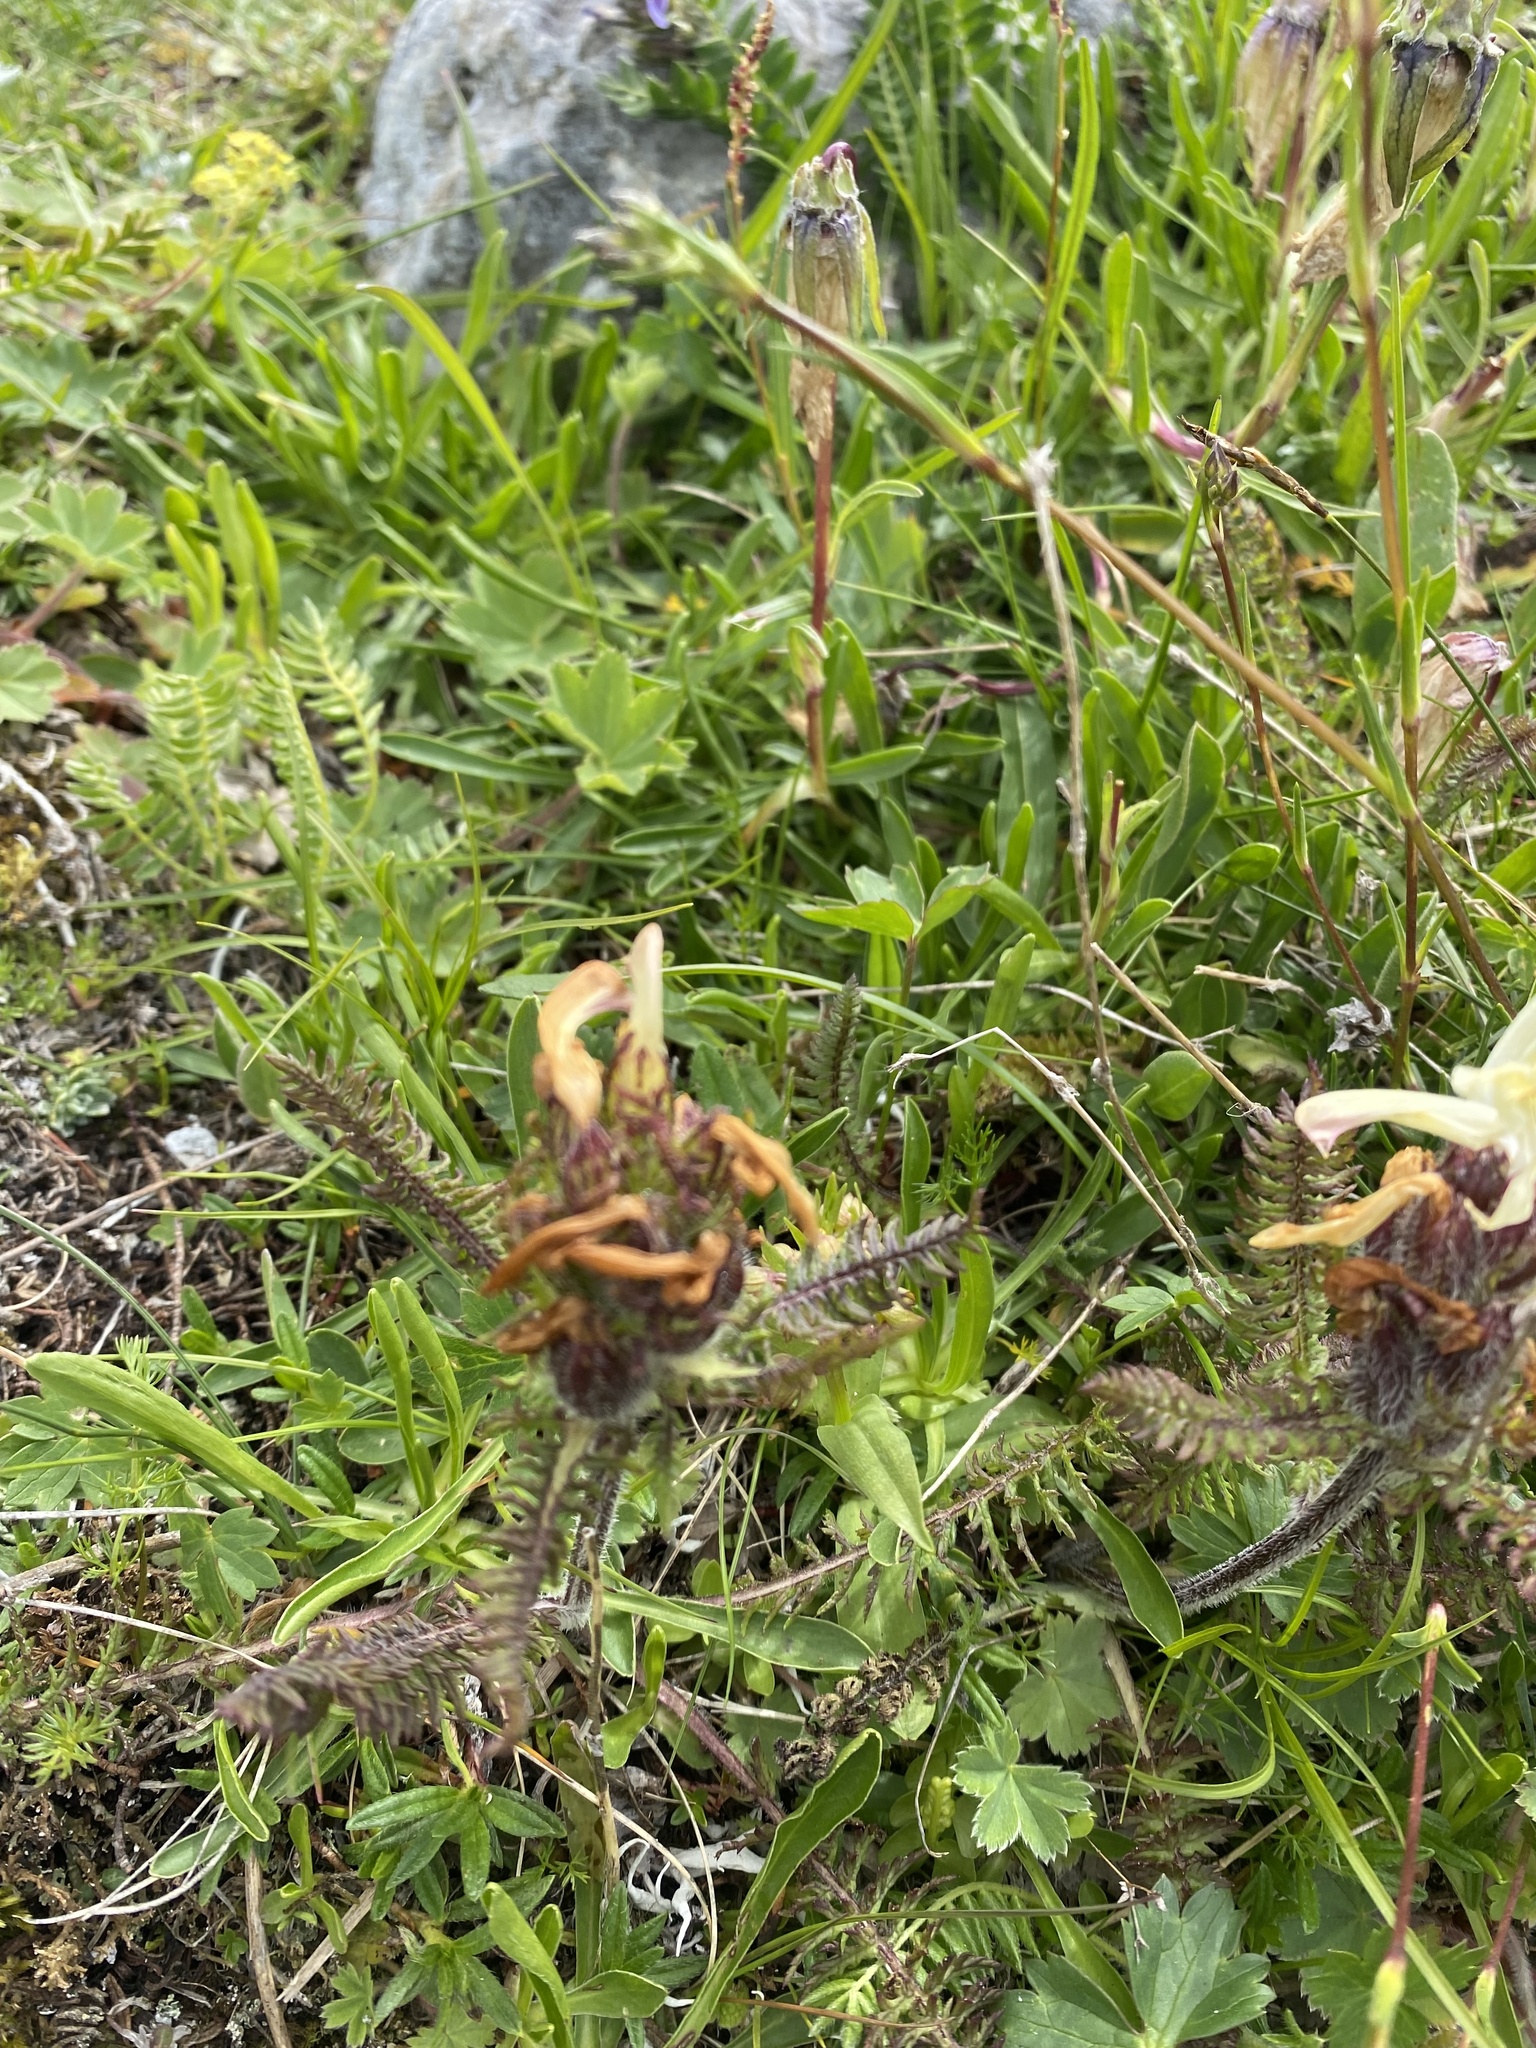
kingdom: Plantae
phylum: Tracheophyta
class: Magnoliopsida
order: Lamiales
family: Orobanchaceae
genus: Pedicularis
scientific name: Pedicularis chroorrhyncha
